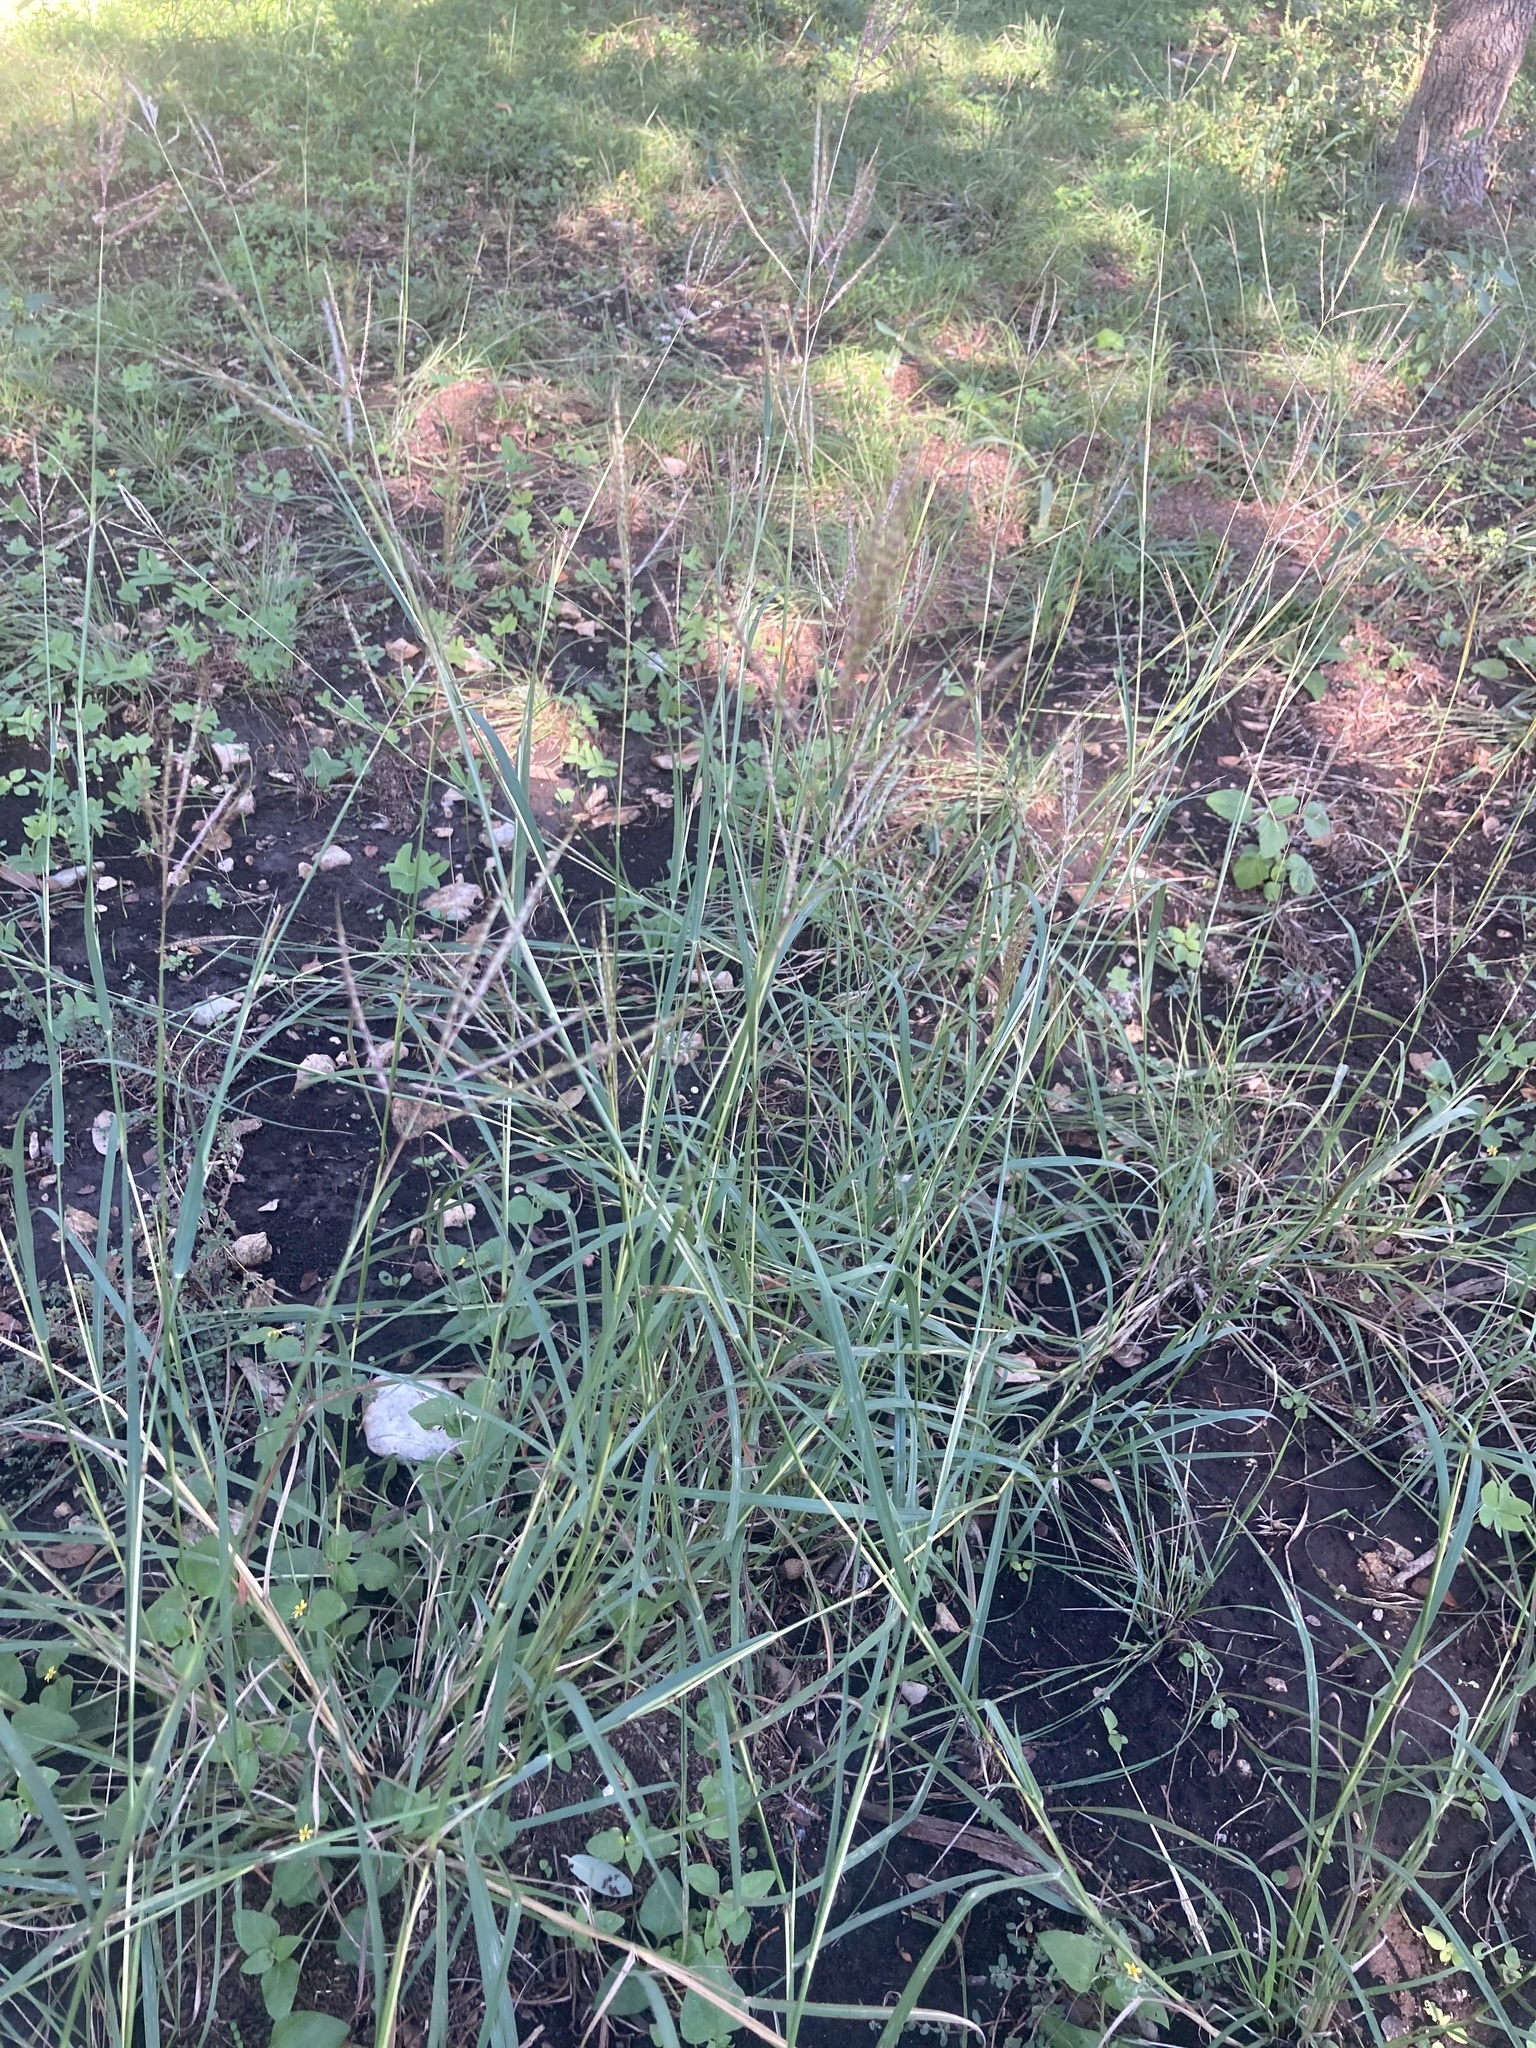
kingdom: Plantae
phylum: Tracheophyta
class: Liliopsida
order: Poales
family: Poaceae
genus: Bothriochloa
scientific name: Bothriochloa ischaemum
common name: Yellow bluestem
